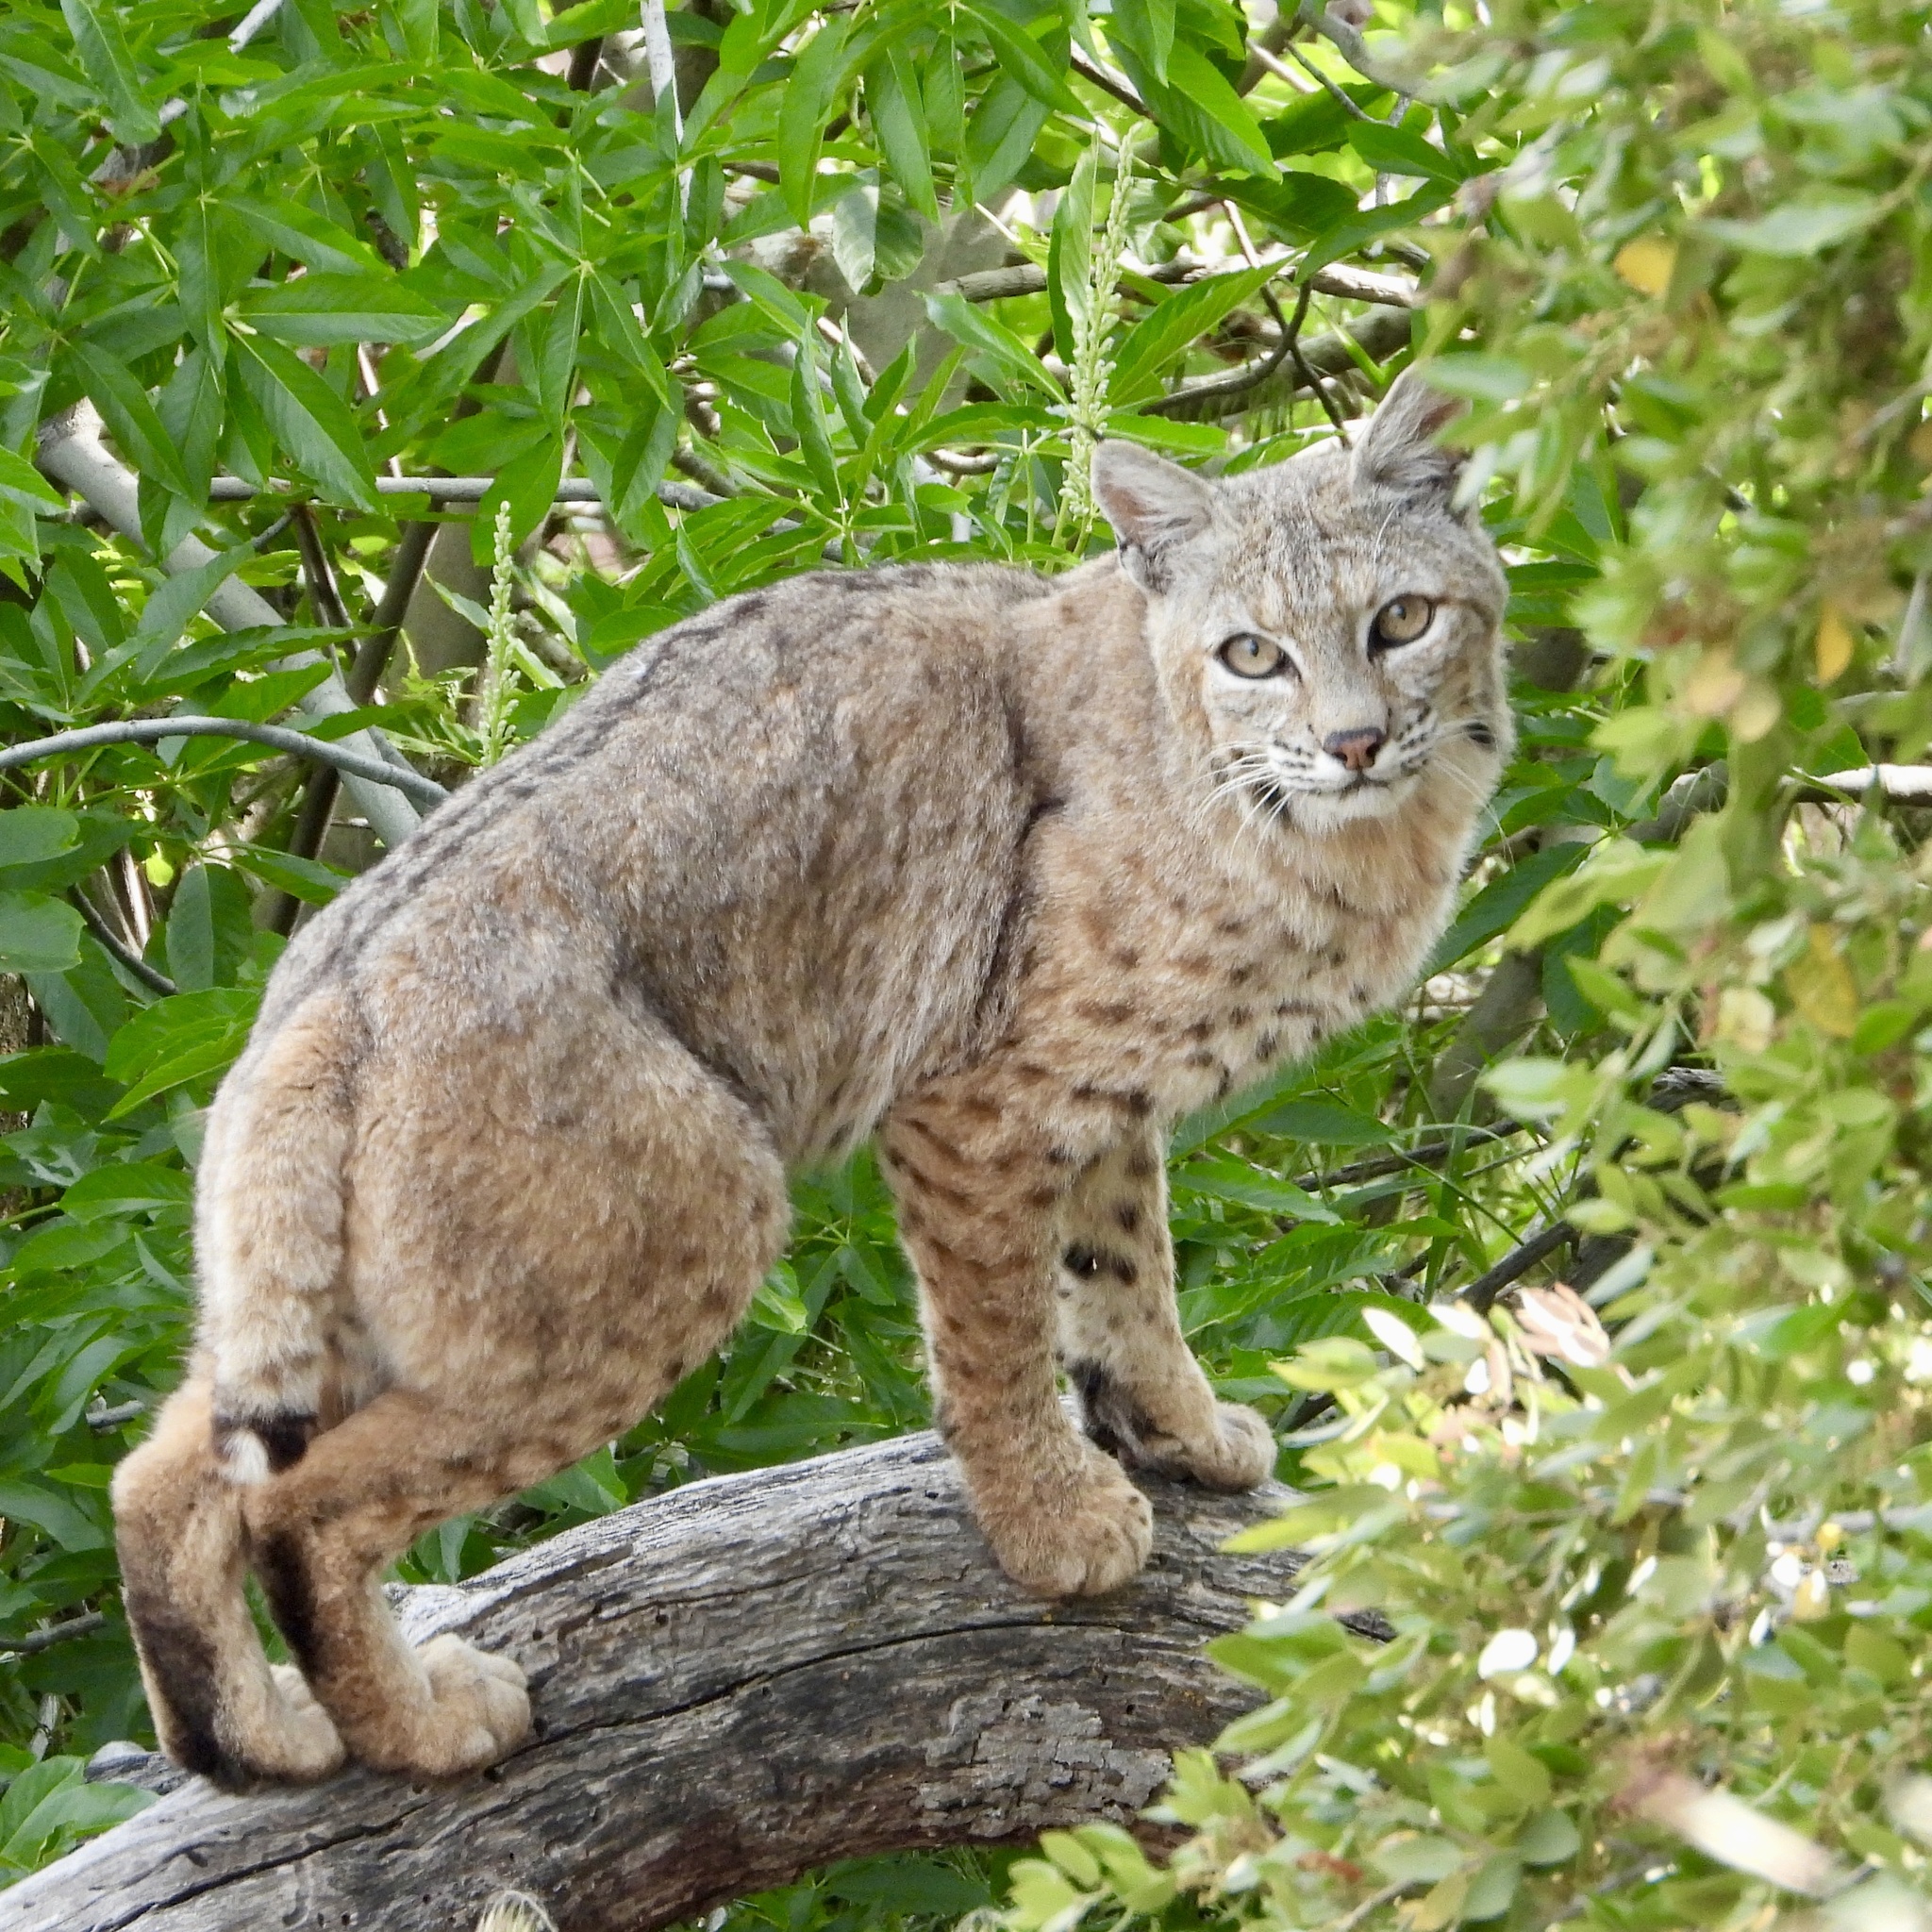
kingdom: Animalia
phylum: Chordata
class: Mammalia
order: Carnivora
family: Felidae
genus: Lynx
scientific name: Lynx rufus
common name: Bobcat
